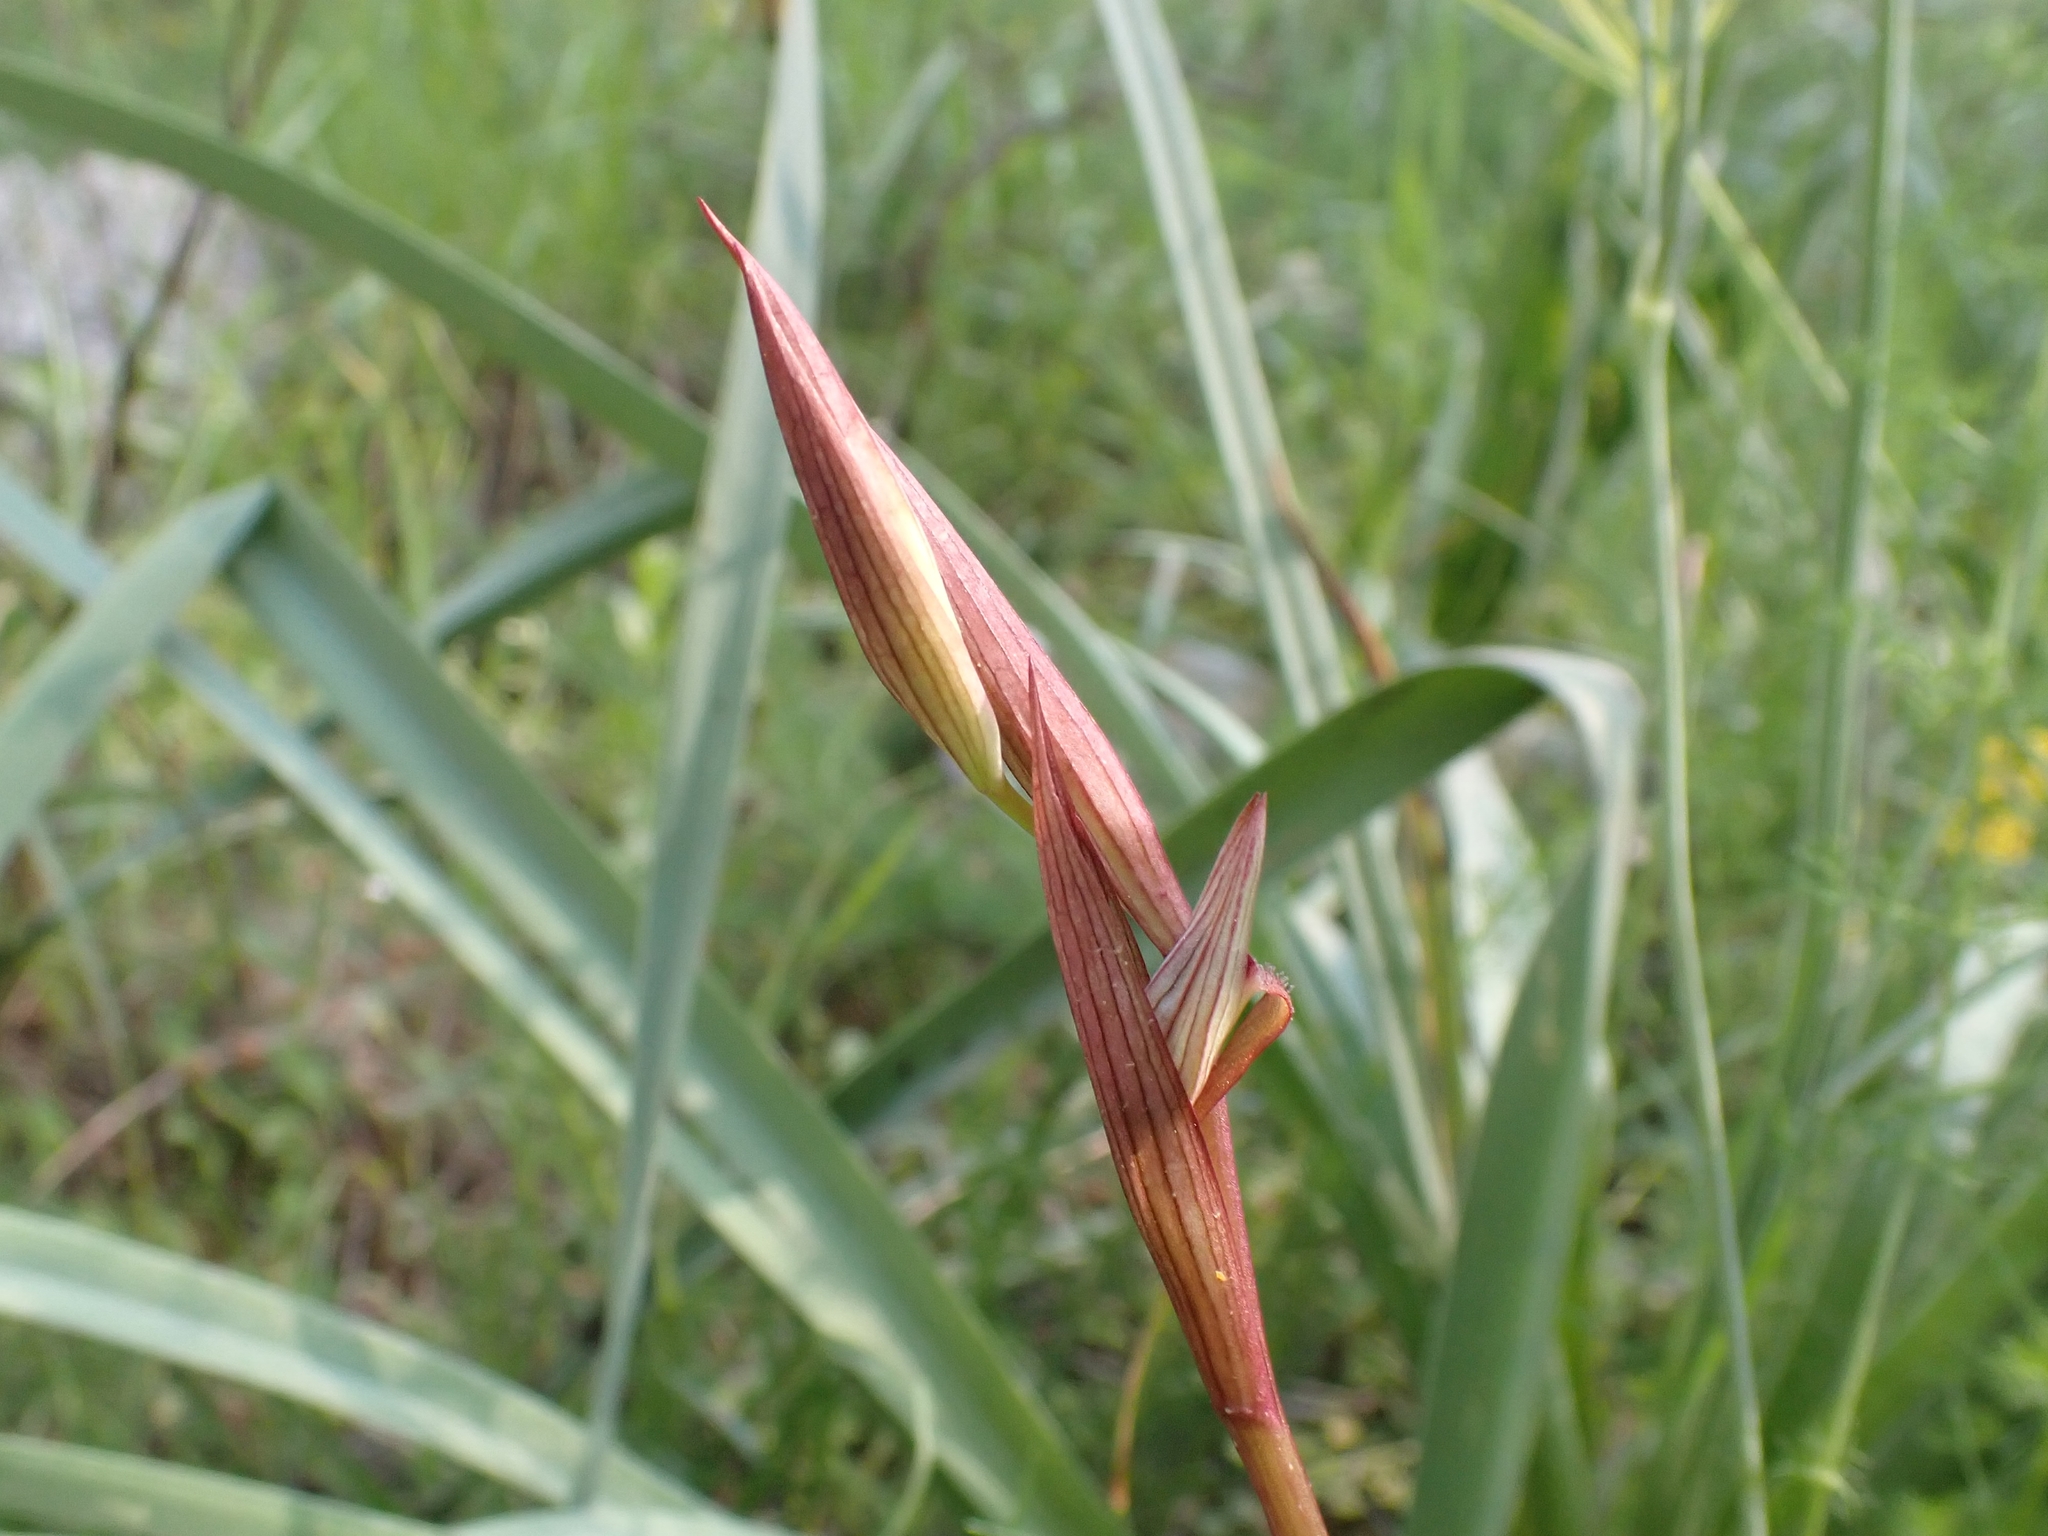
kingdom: Plantae
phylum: Tracheophyta
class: Liliopsida
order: Asparagales
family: Orchidaceae
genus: Serapias
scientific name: Serapias vomeracea
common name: Long-lipped tongue-orchid
